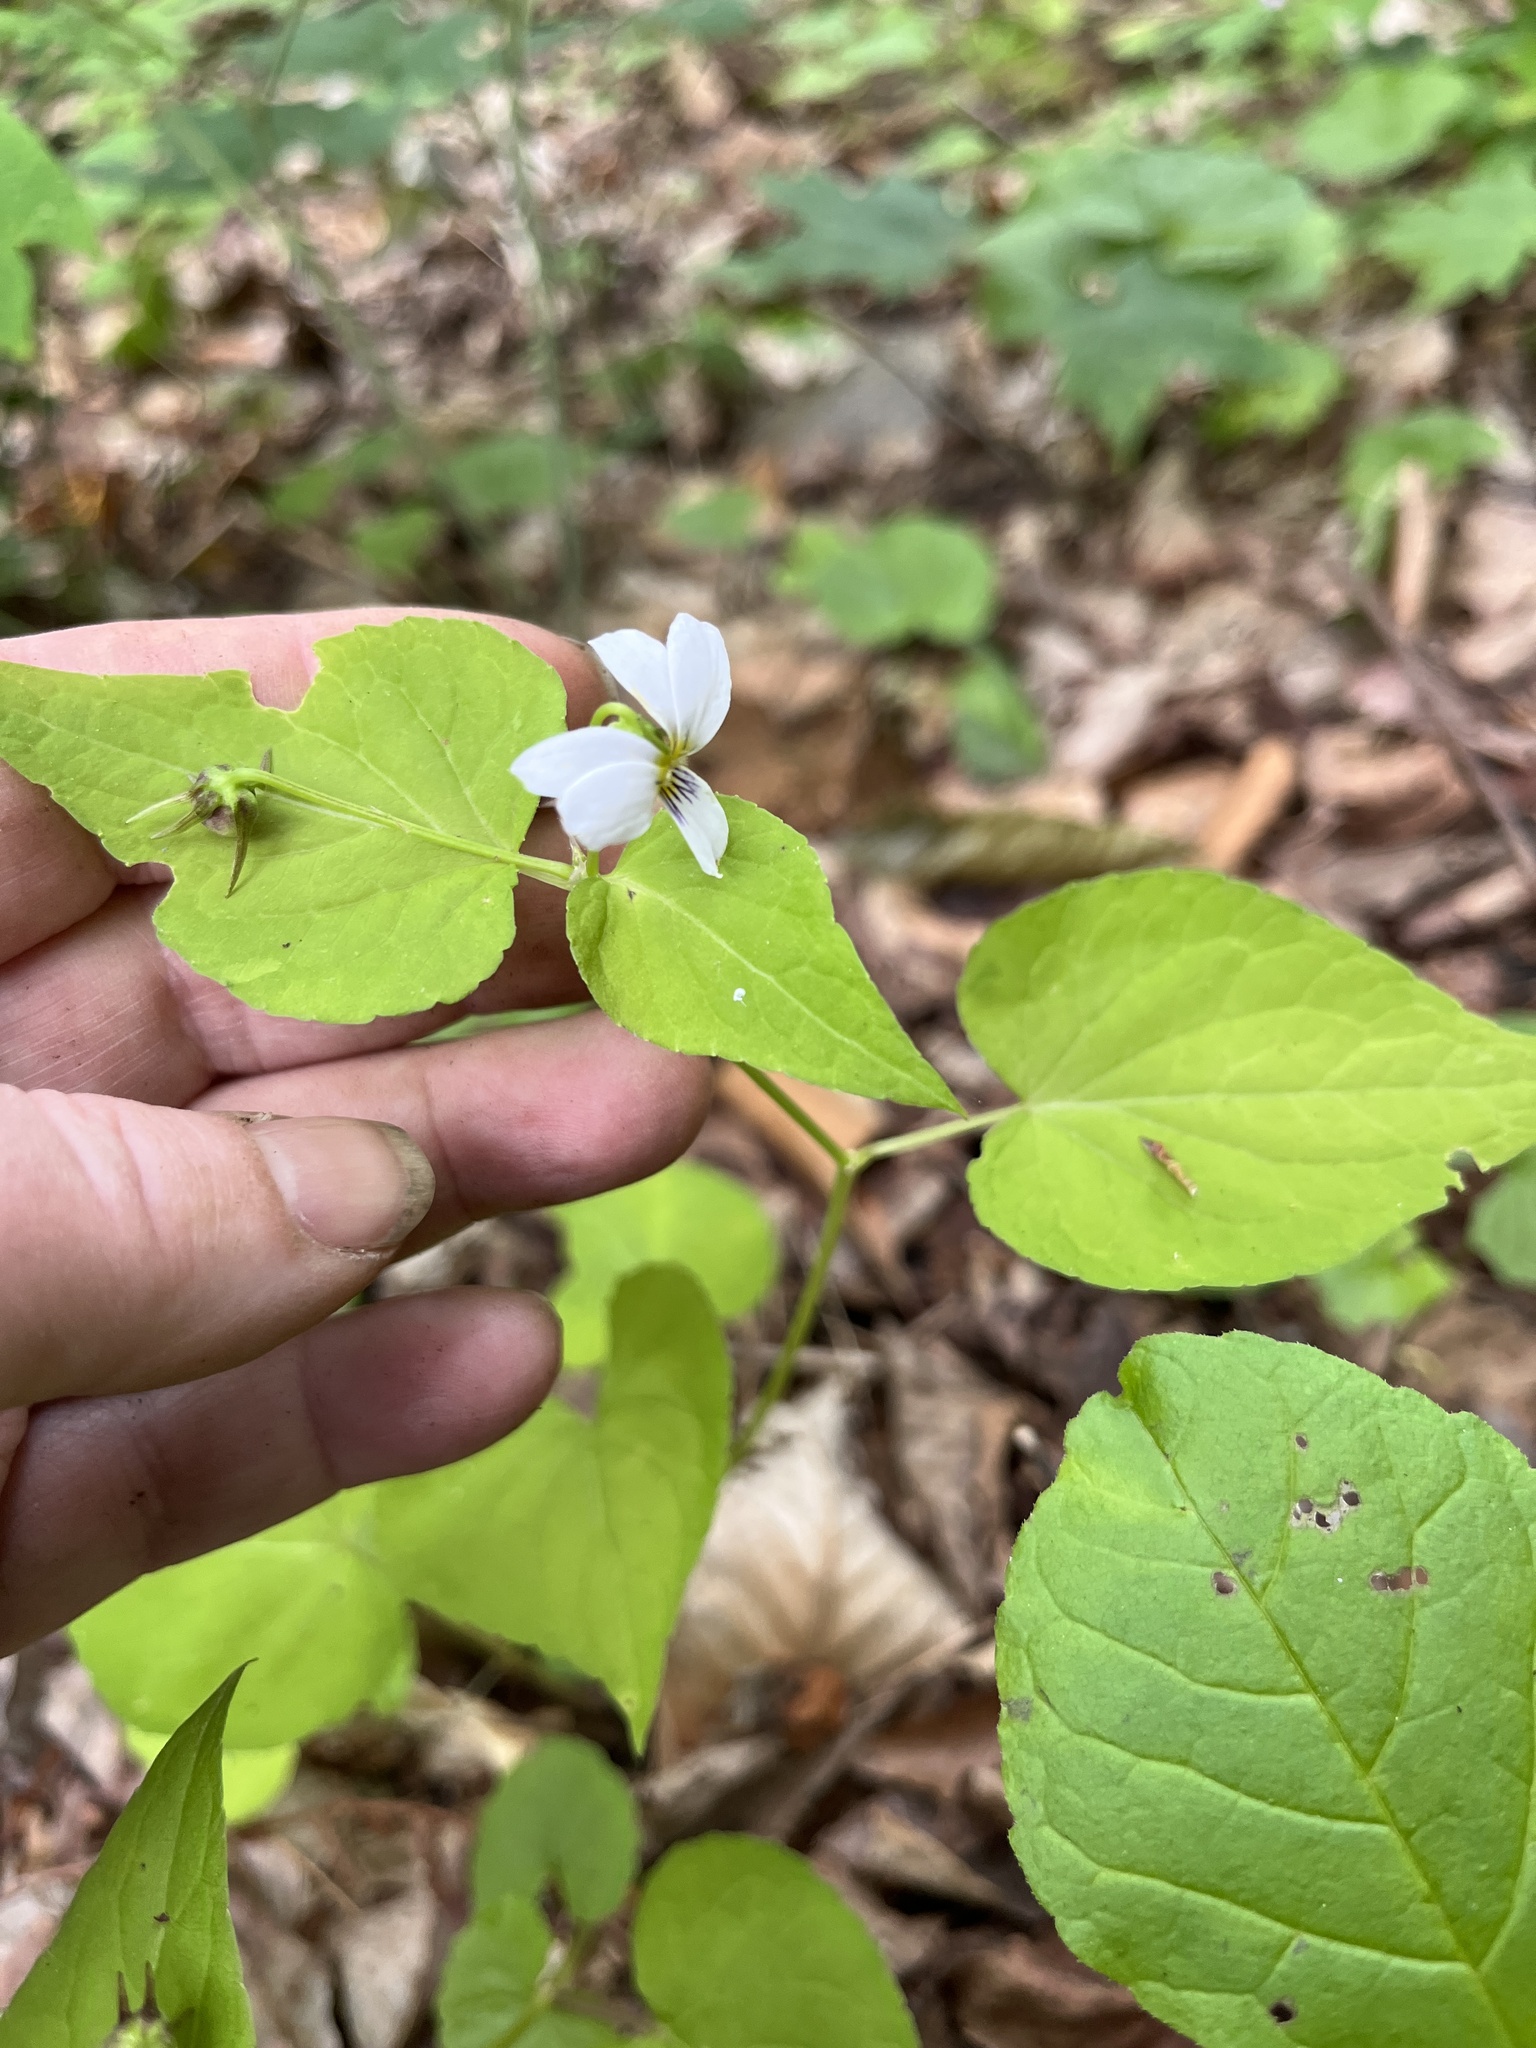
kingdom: Plantae
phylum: Tracheophyta
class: Magnoliopsida
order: Malpighiales
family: Violaceae
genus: Viola
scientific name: Viola canadensis
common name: Canada violet
